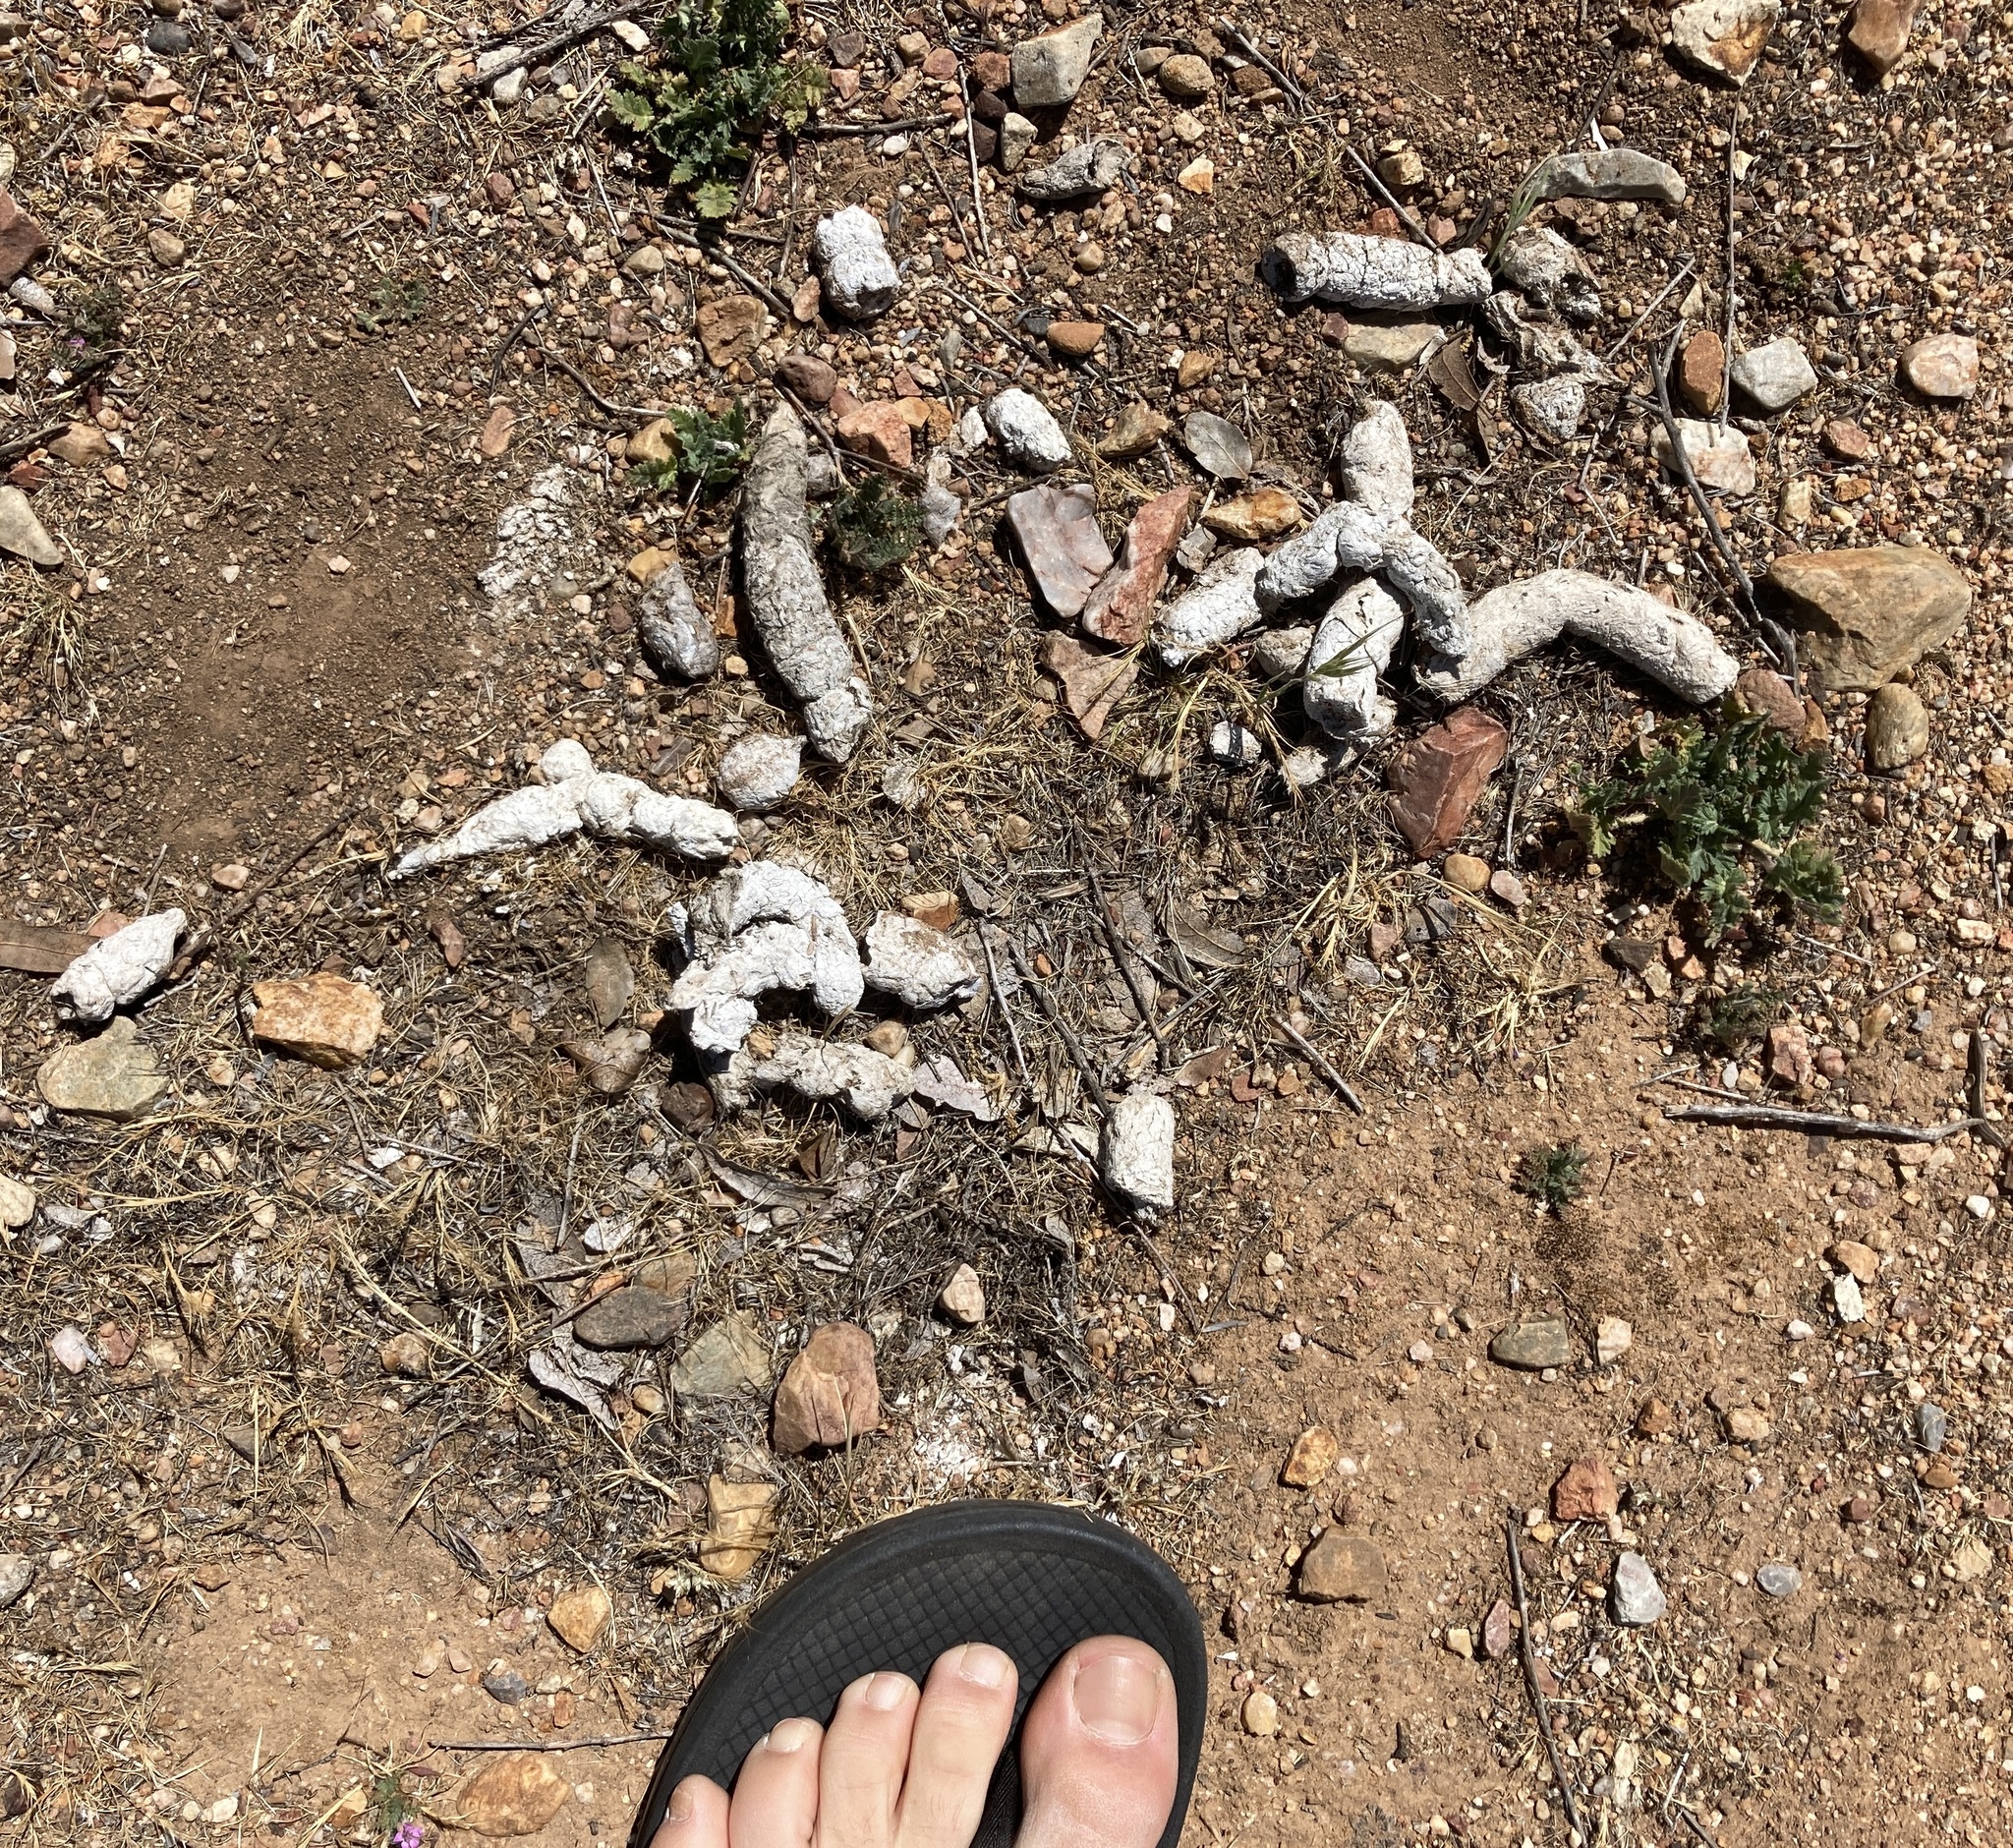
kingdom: Animalia
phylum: Chordata
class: Mammalia
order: Carnivora
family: Felidae
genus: Lynx
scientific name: Lynx rufus
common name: Bobcat
